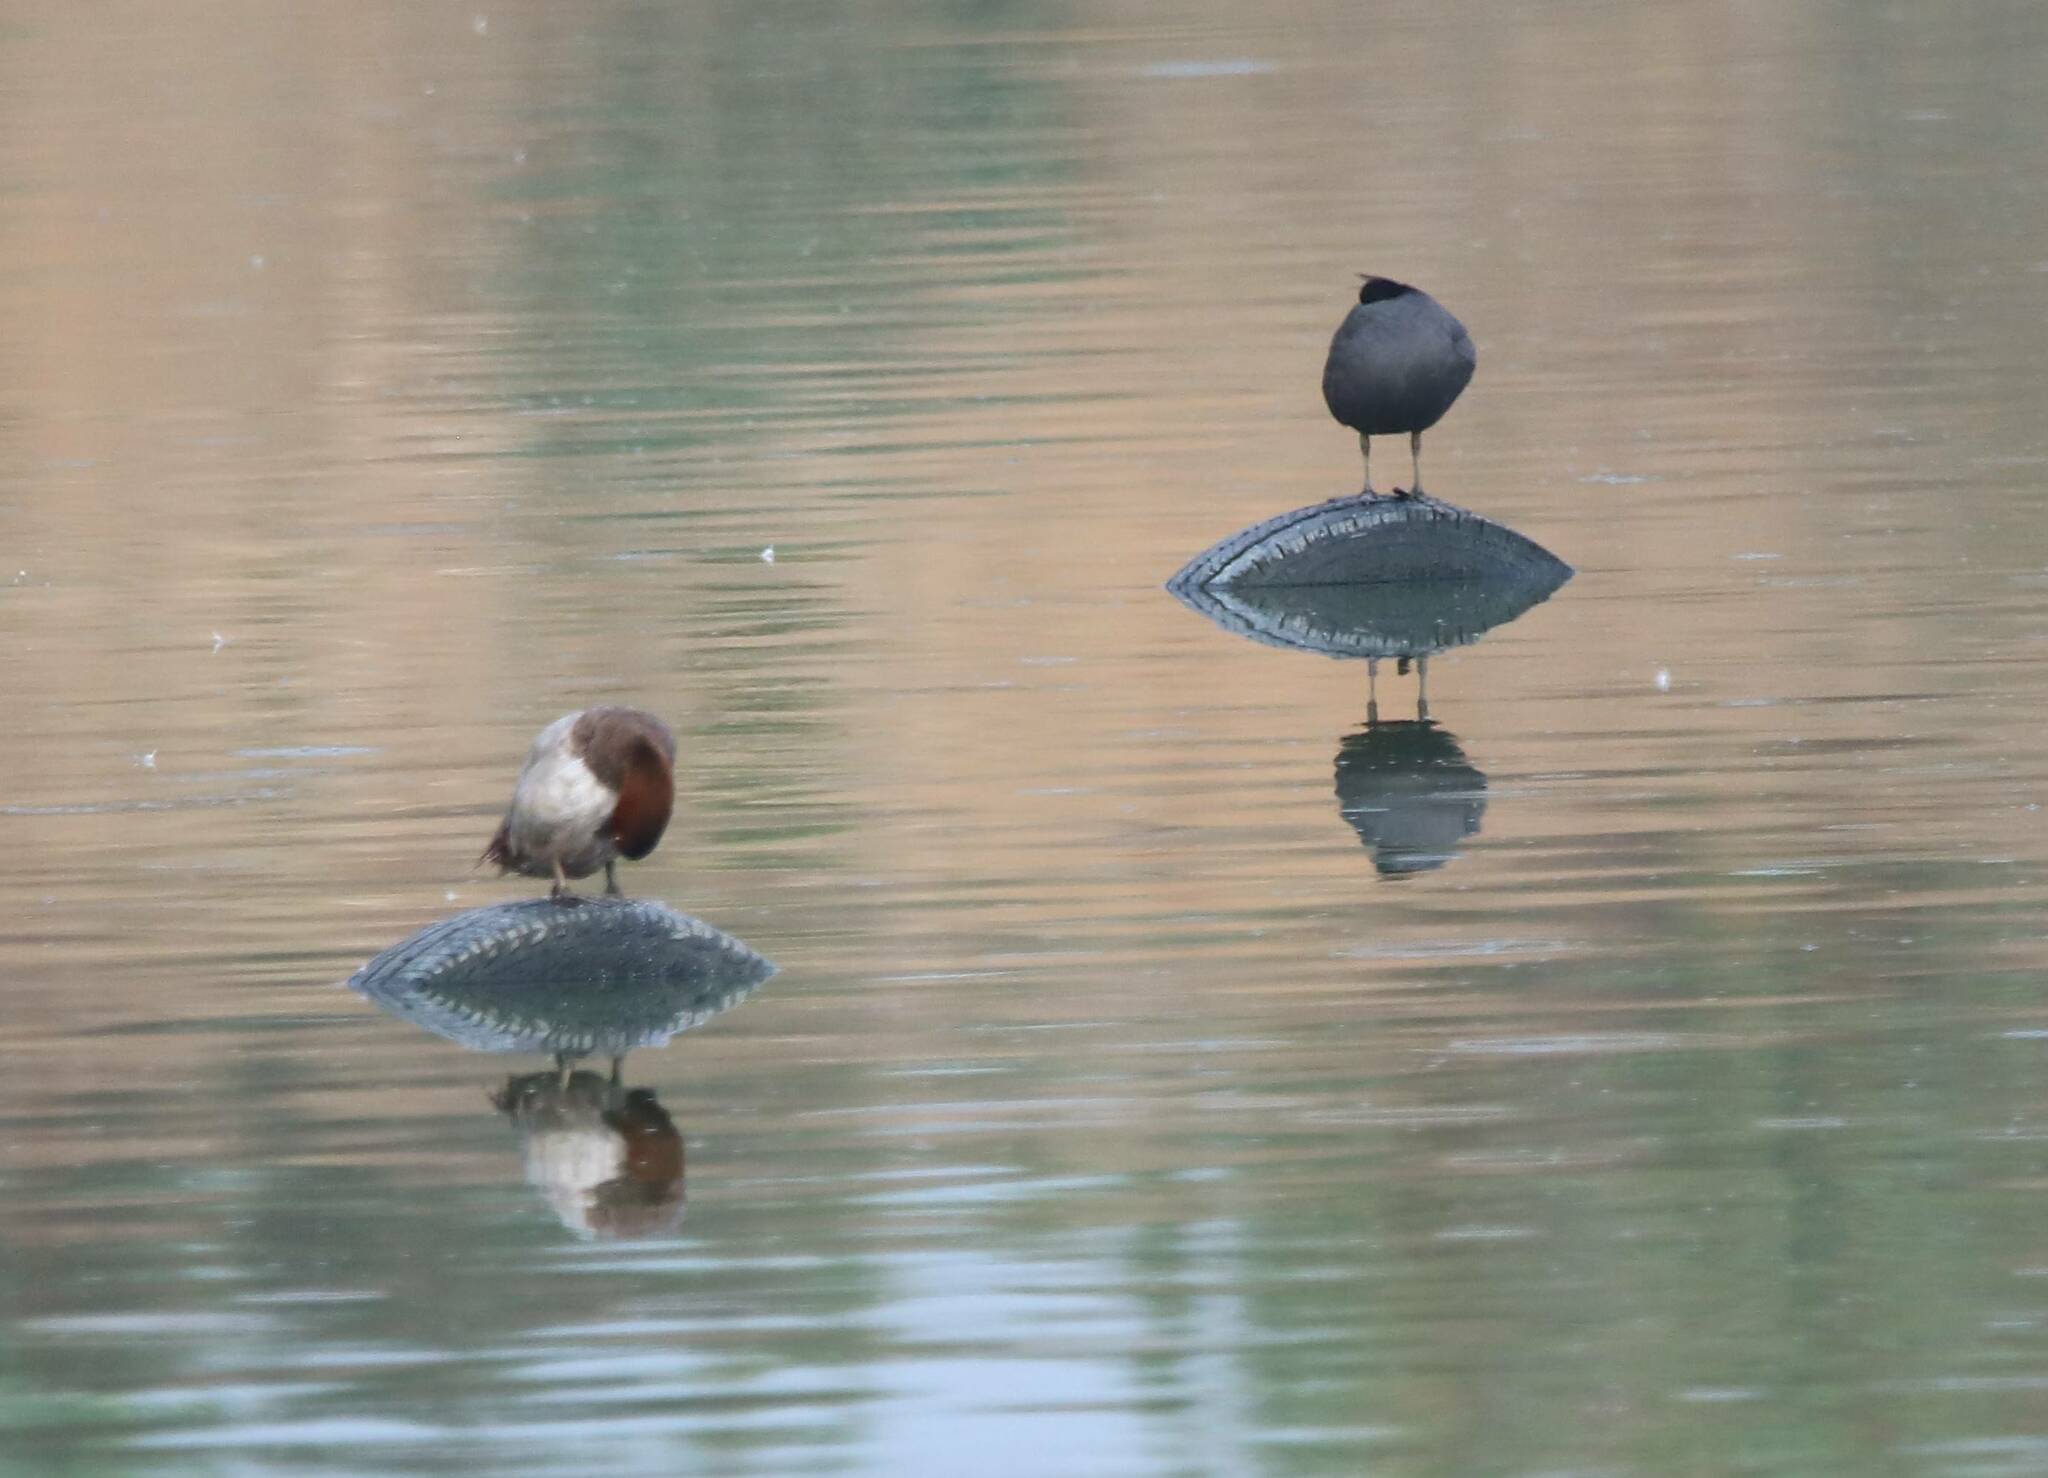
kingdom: Animalia
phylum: Chordata
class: Aves
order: Anseriformes
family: Anatidae
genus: Aythya
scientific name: Aythya ferina
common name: Common pochard
